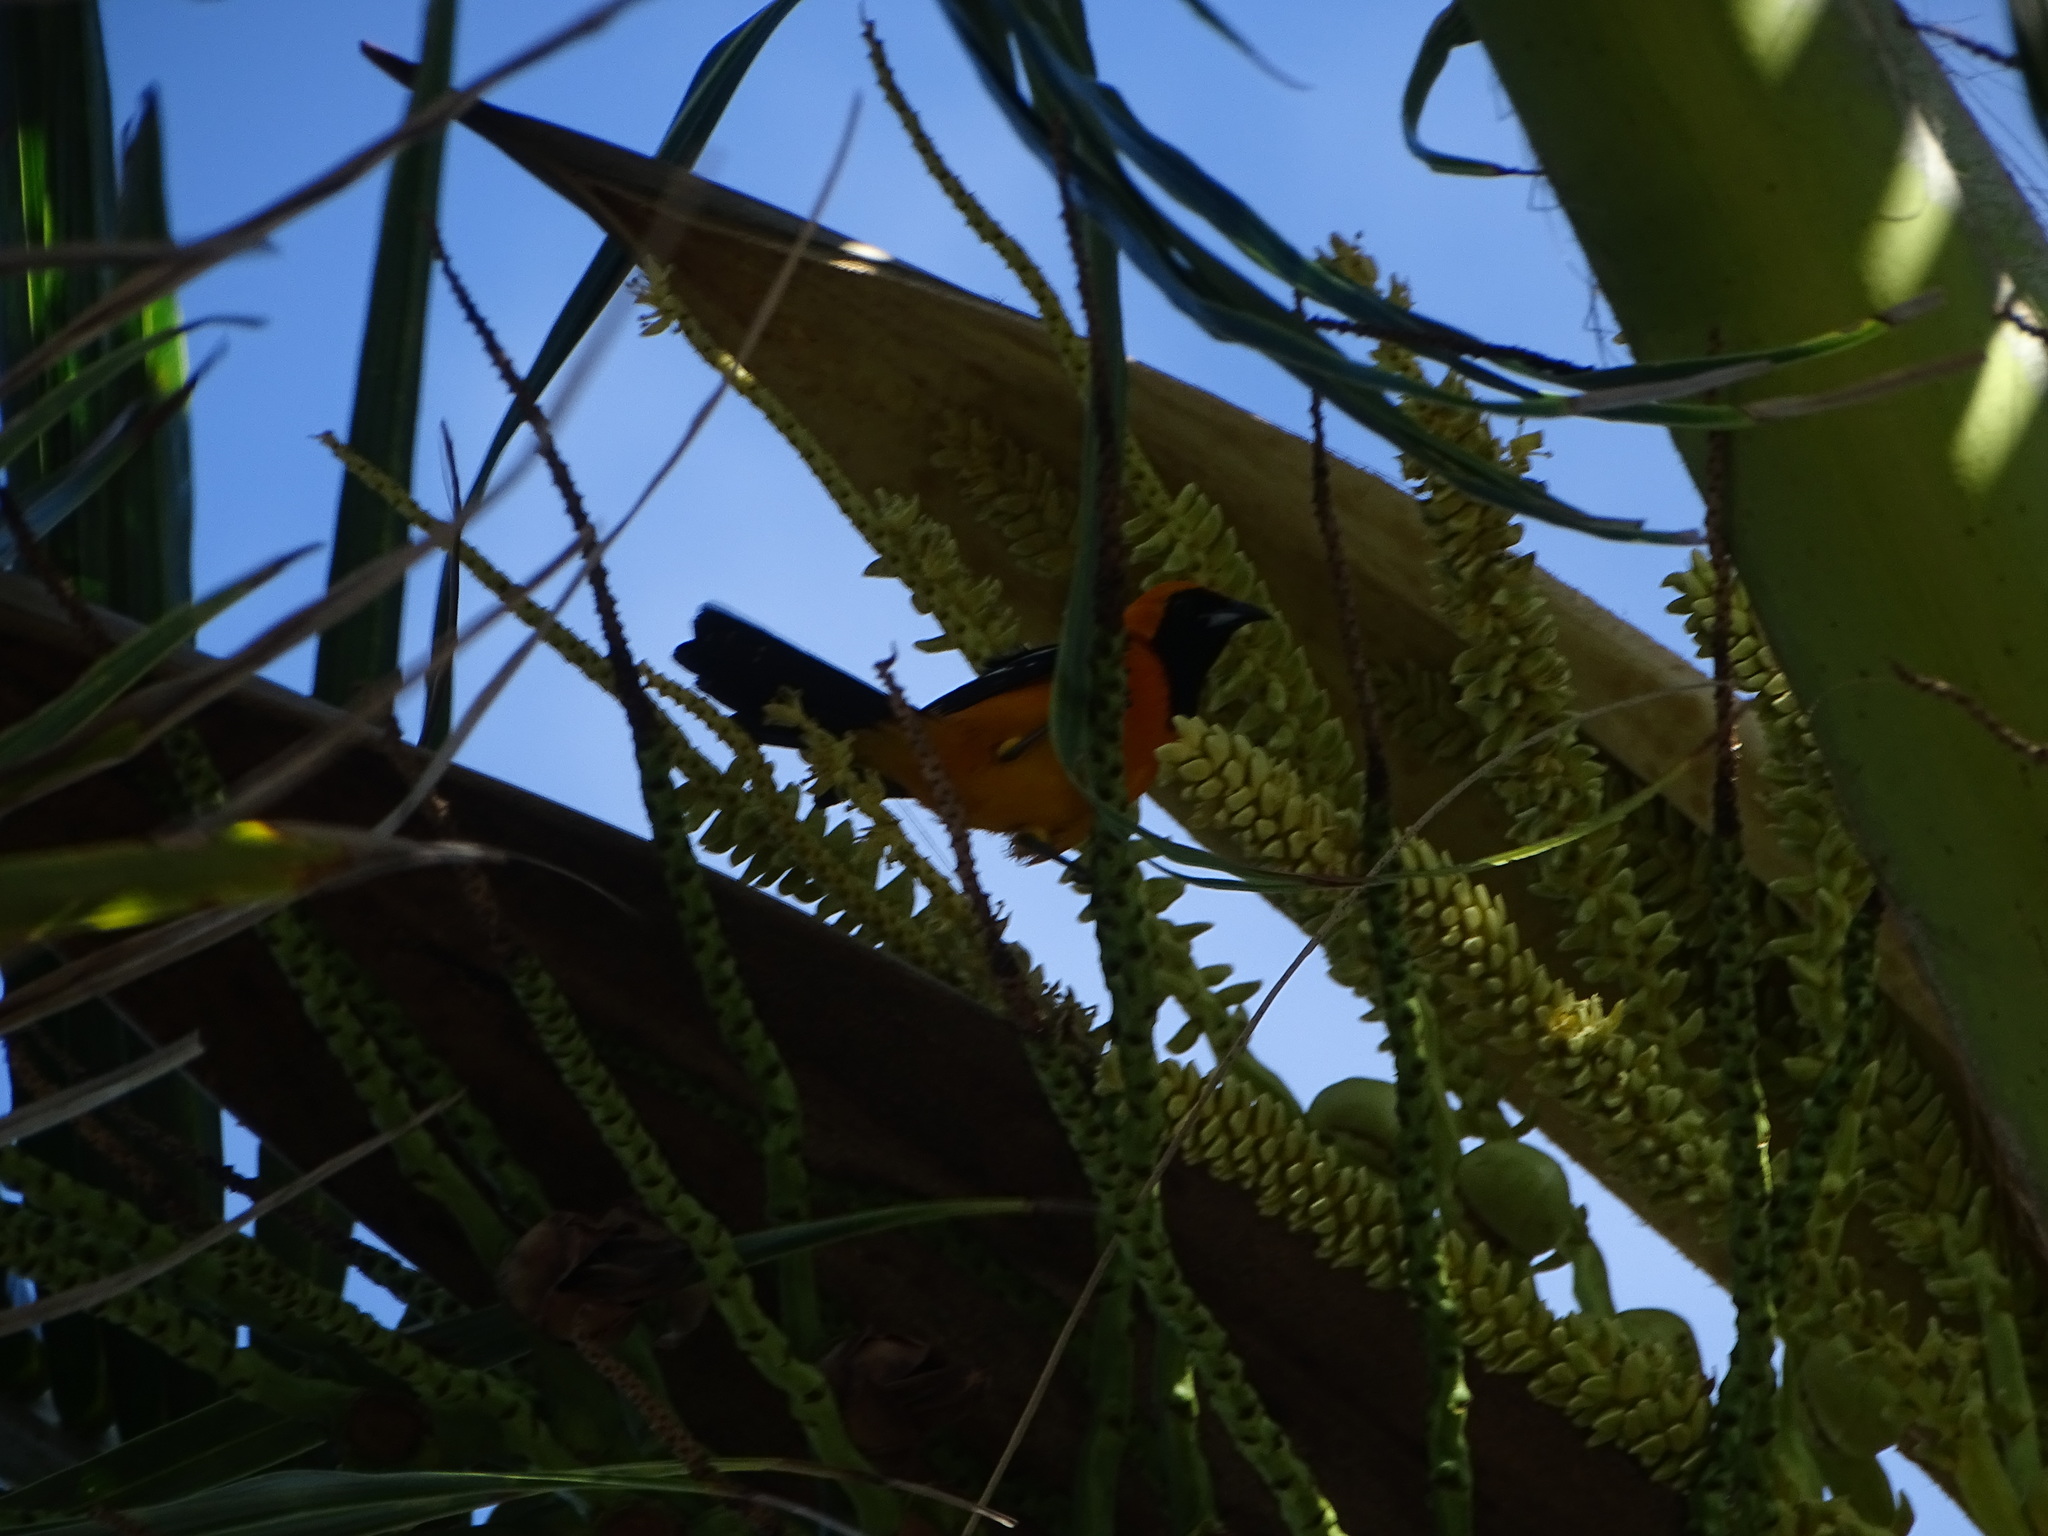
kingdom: Animalia
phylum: Chordata
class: Aves
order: Passeriformes
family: Icteridae
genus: Icterus
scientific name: Icterus cucullatus
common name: Hooded oriole
